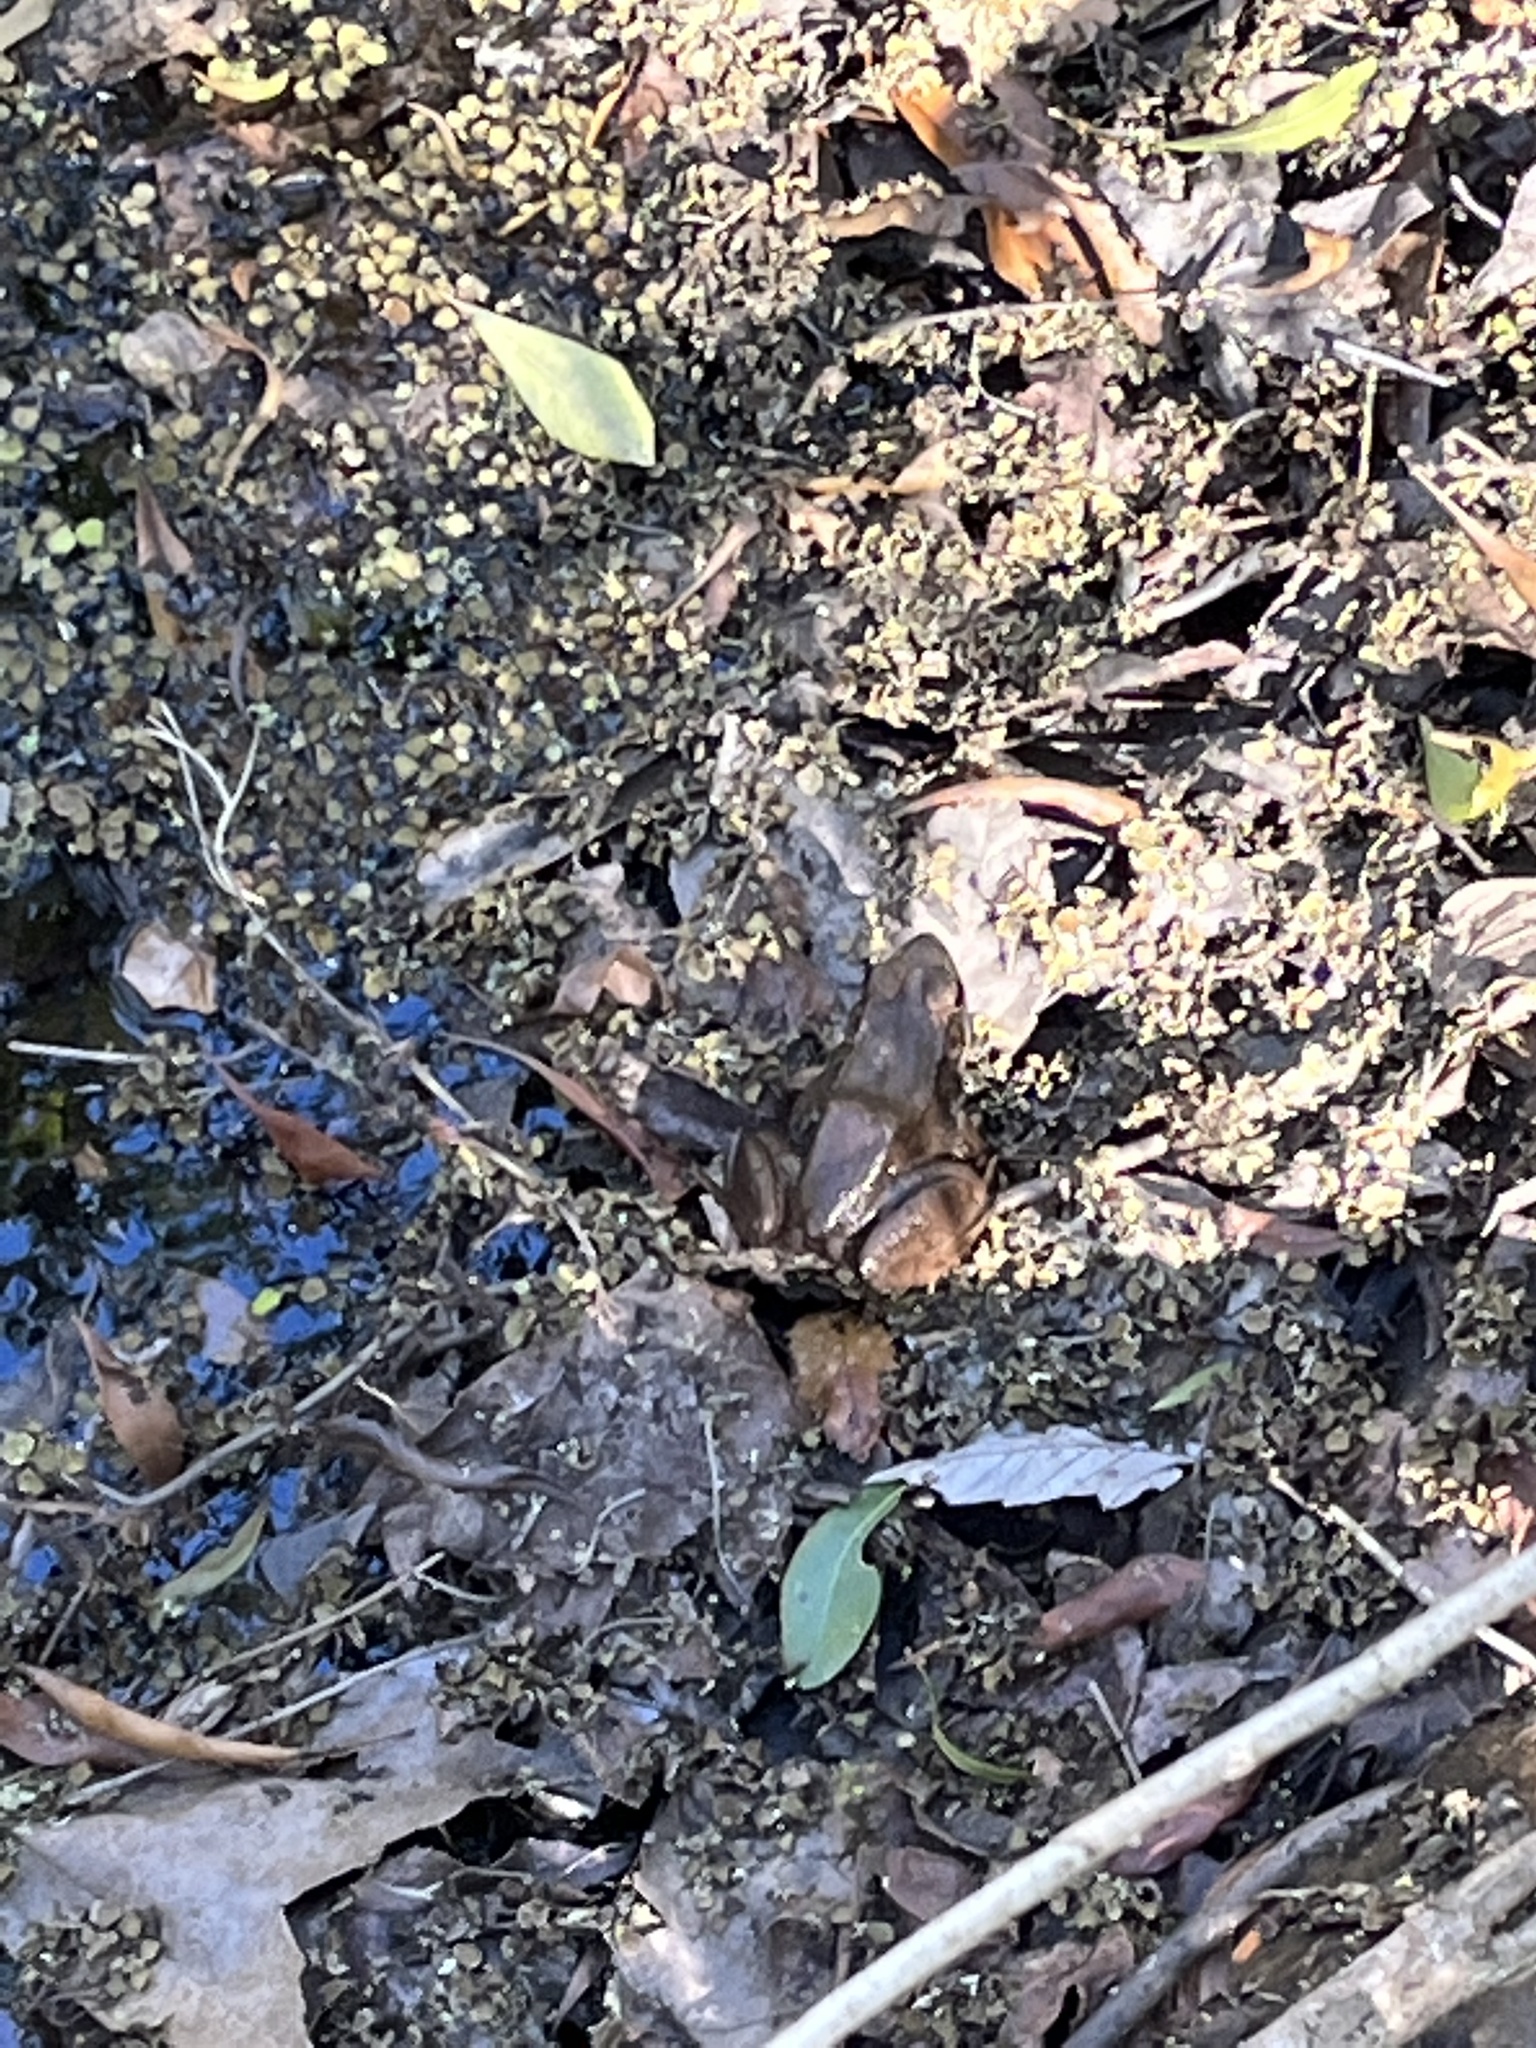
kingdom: Animalia
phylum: Chordata
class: Amphibia
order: Anura
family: Ranidae
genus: Lithobates
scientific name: Lithobates clamitans
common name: Green frog
